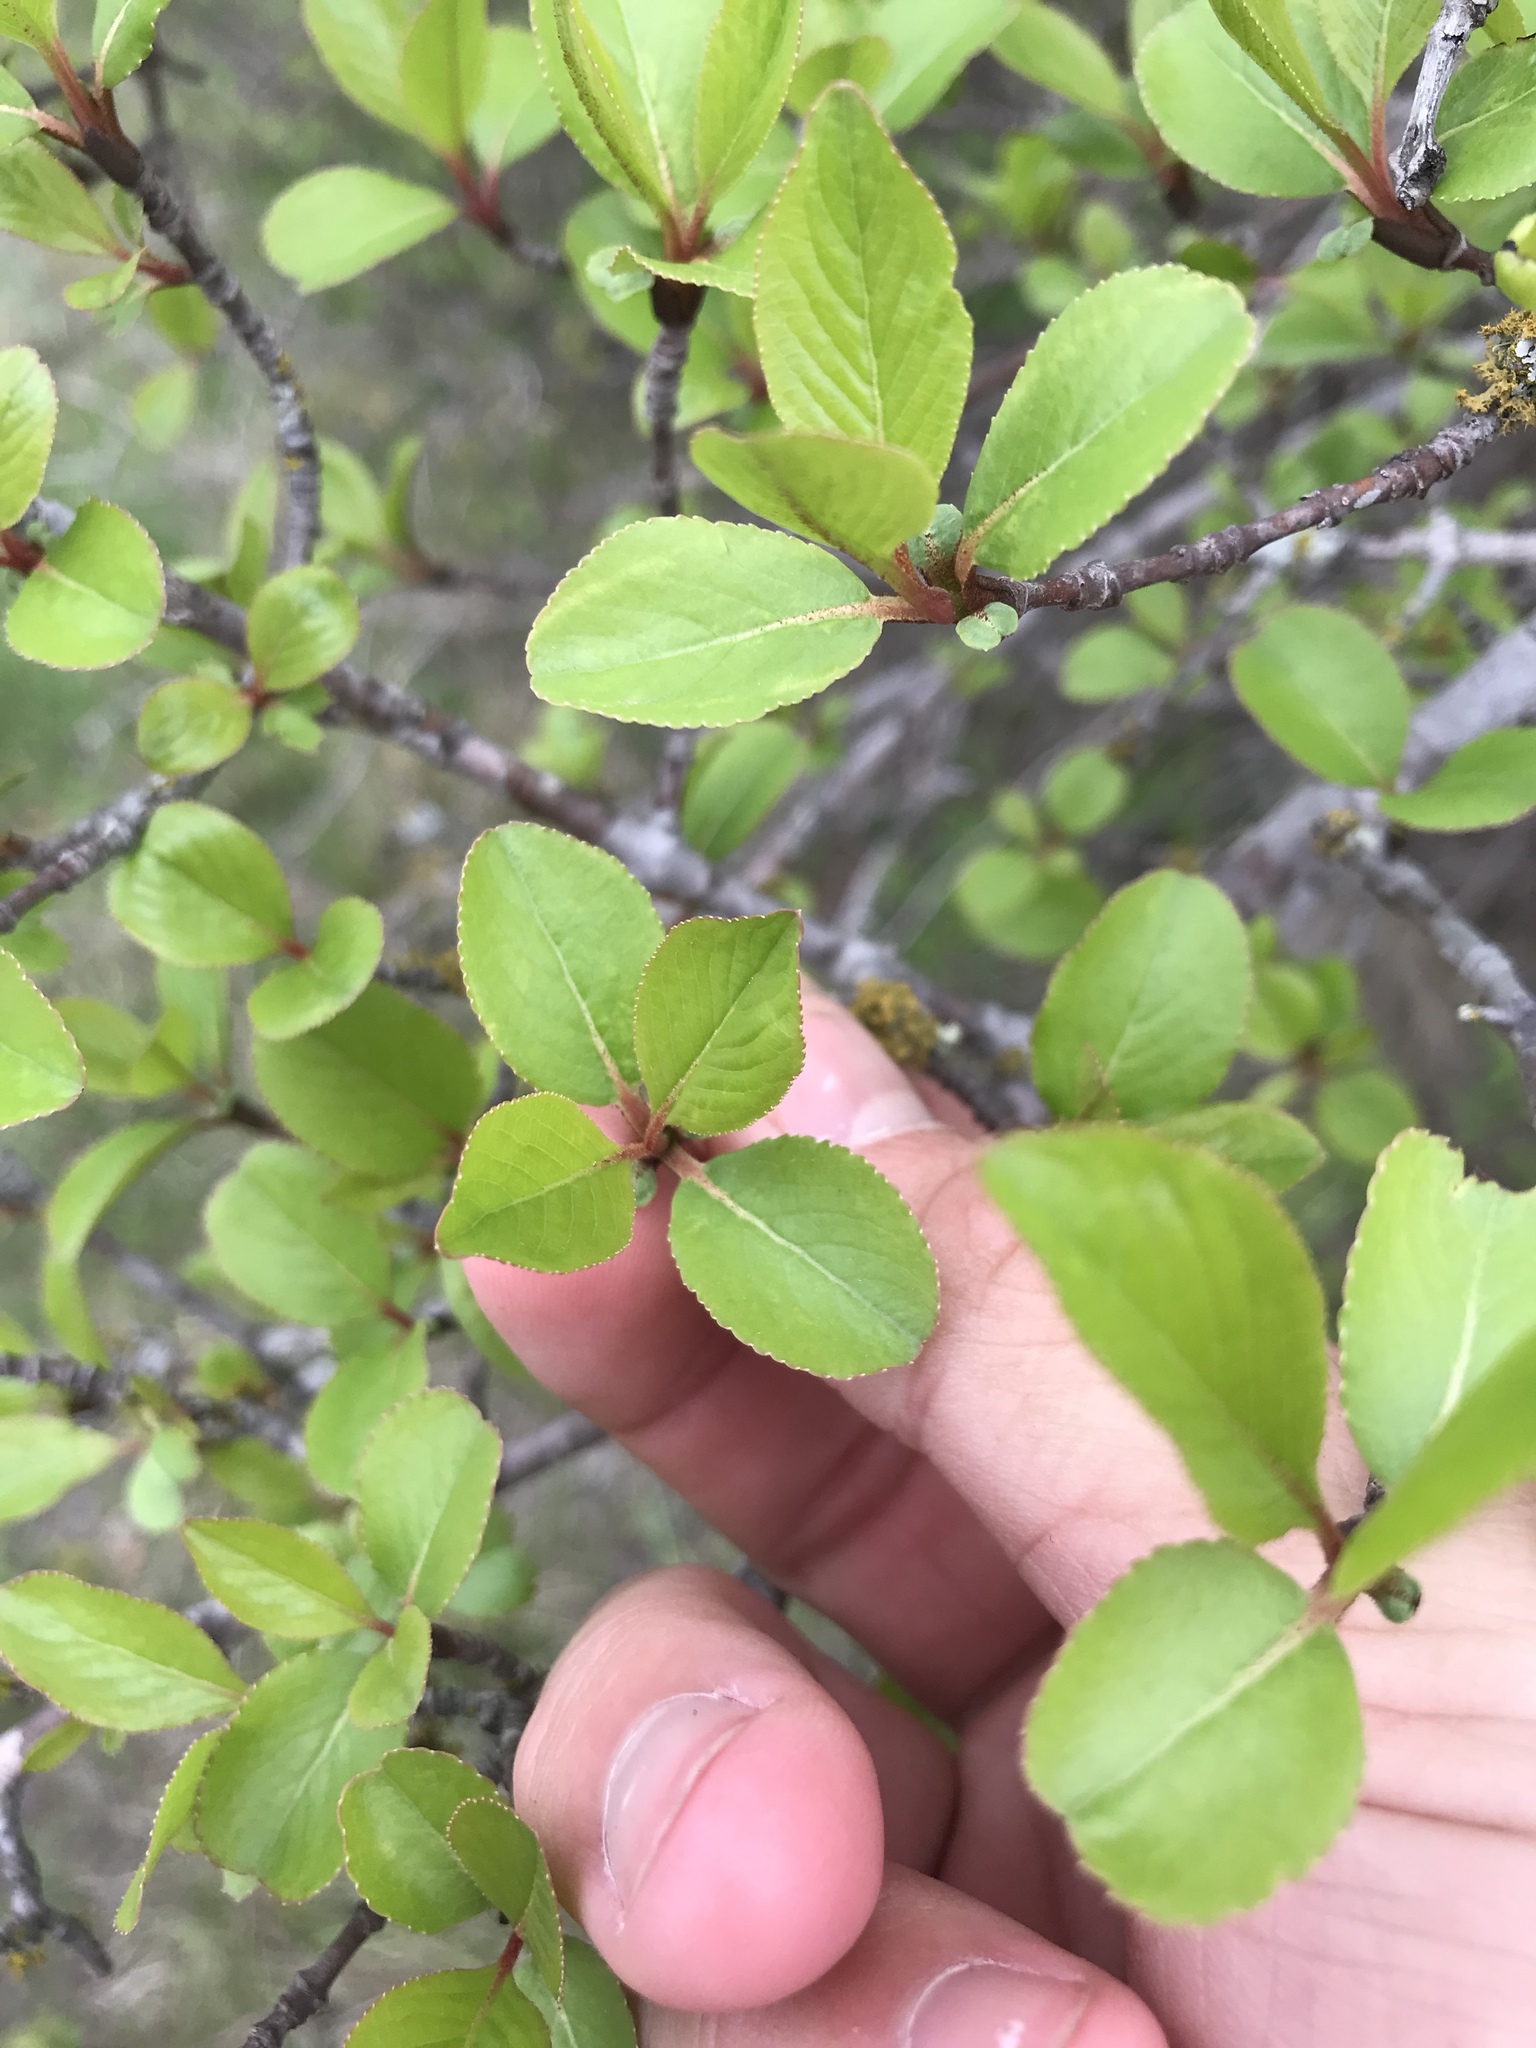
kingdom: Plantae
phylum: Tracheophyta
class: Magnoliopsida
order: Dipsacales
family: Viburnaceae
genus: Viburnum
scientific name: Viburnum rufidulum
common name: Blue haw
